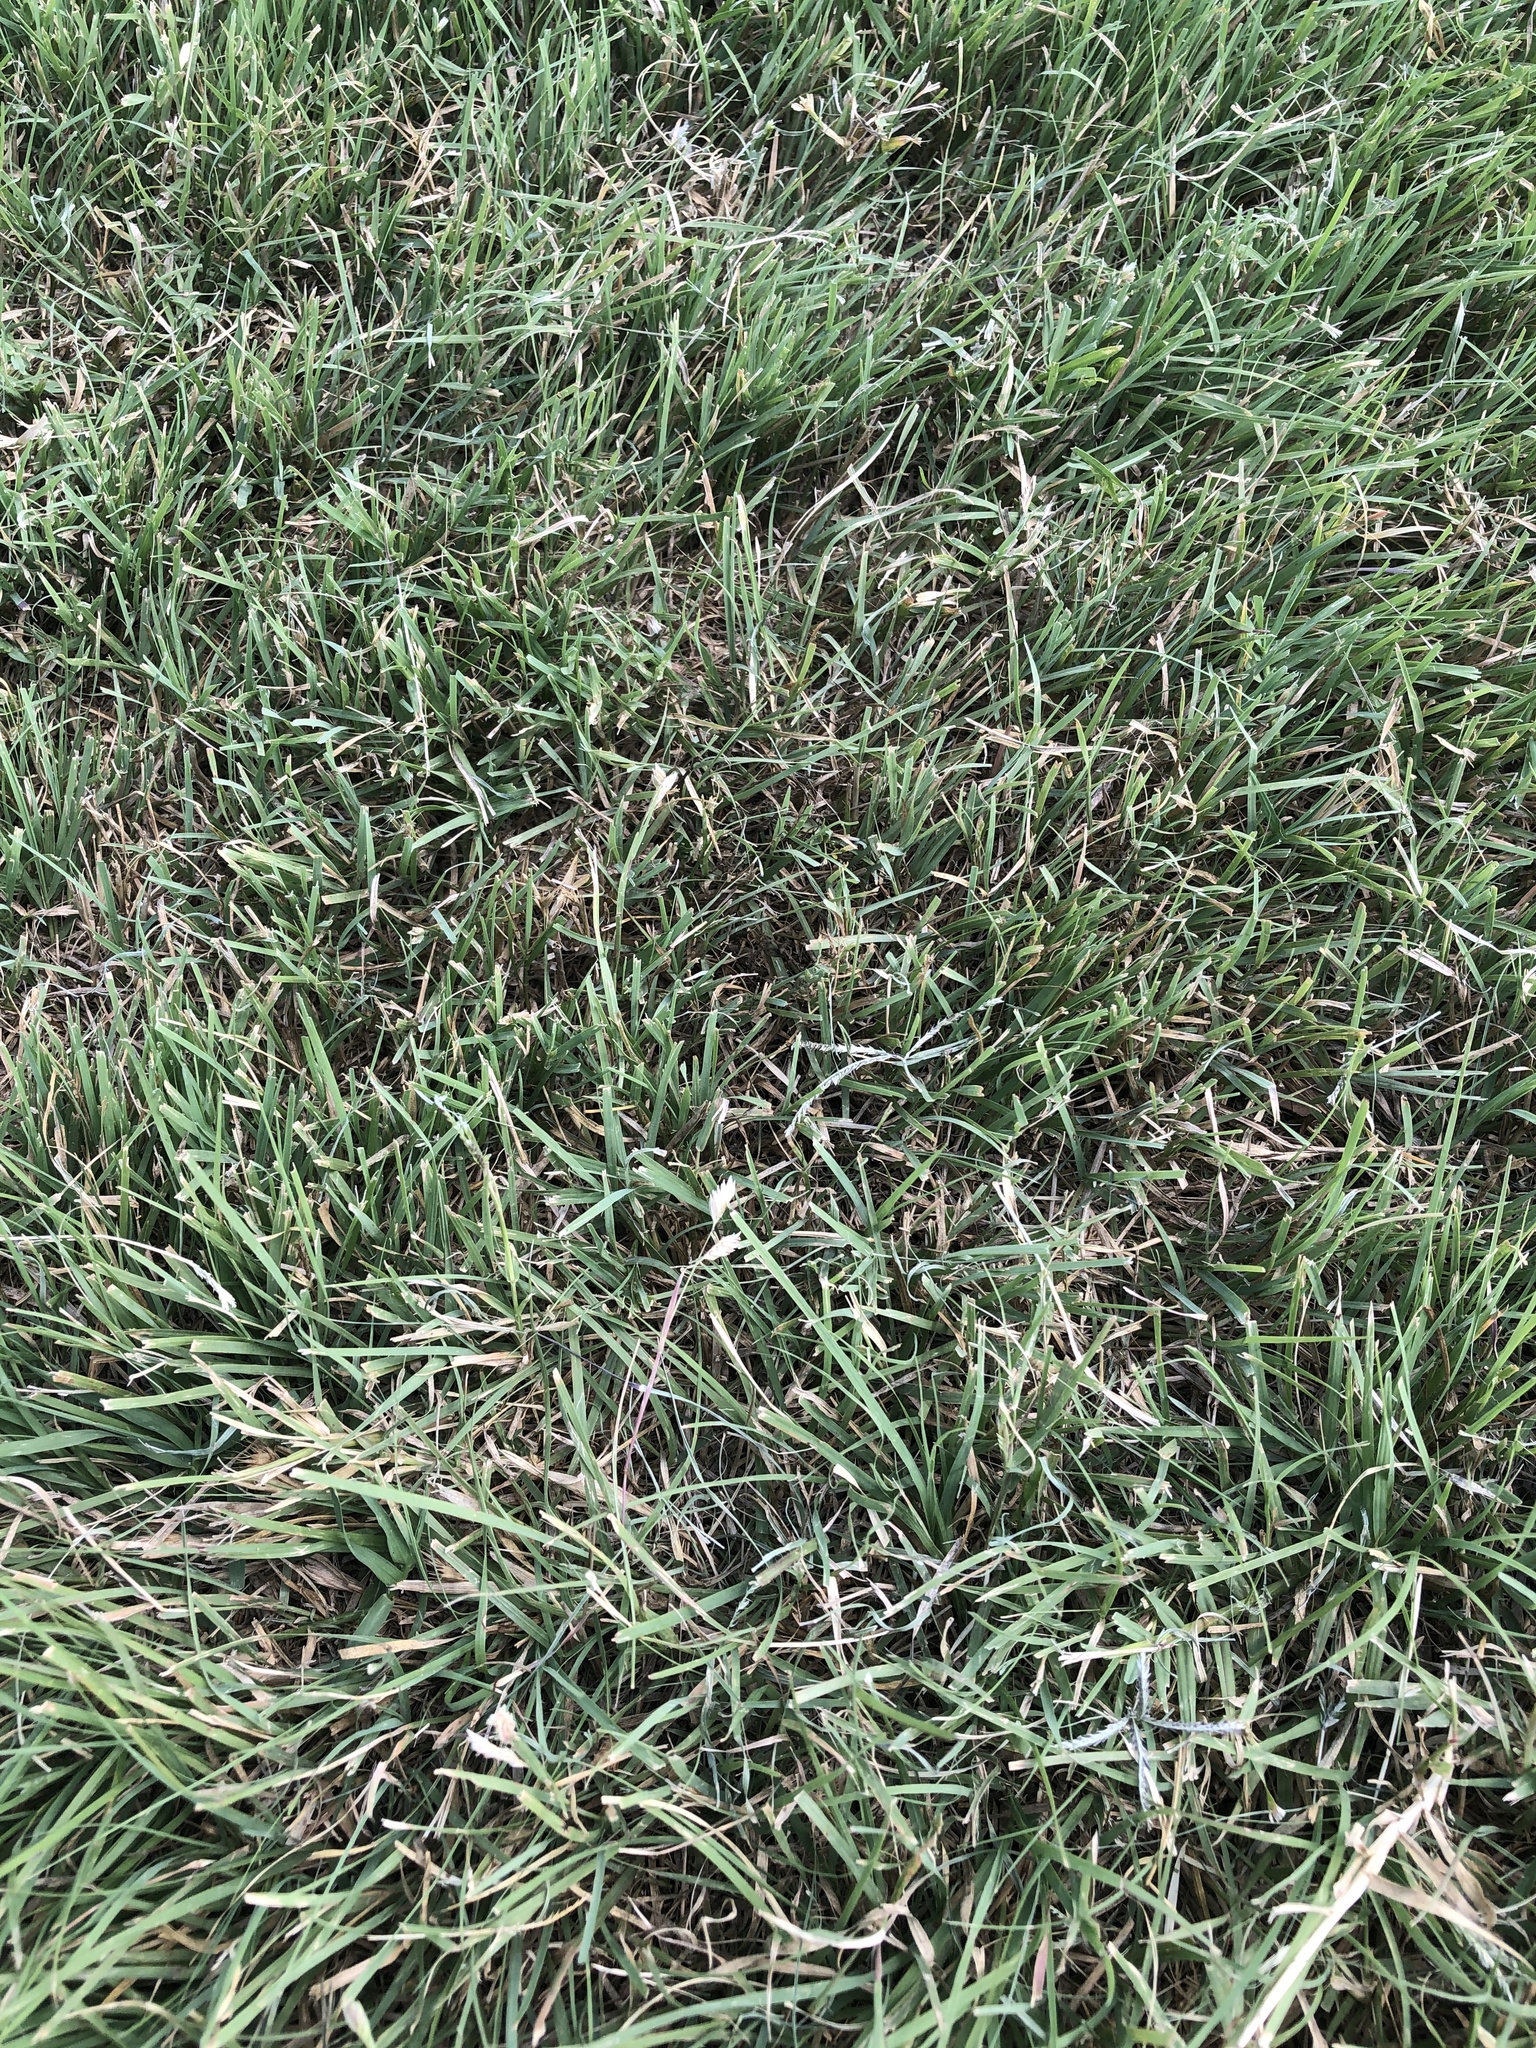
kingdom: Plantae
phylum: Tracheophyta
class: Liliopsida
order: Poales
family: Poaceae
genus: Bouteloua
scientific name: Bouteloua dactyloides
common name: Buffalo grass
